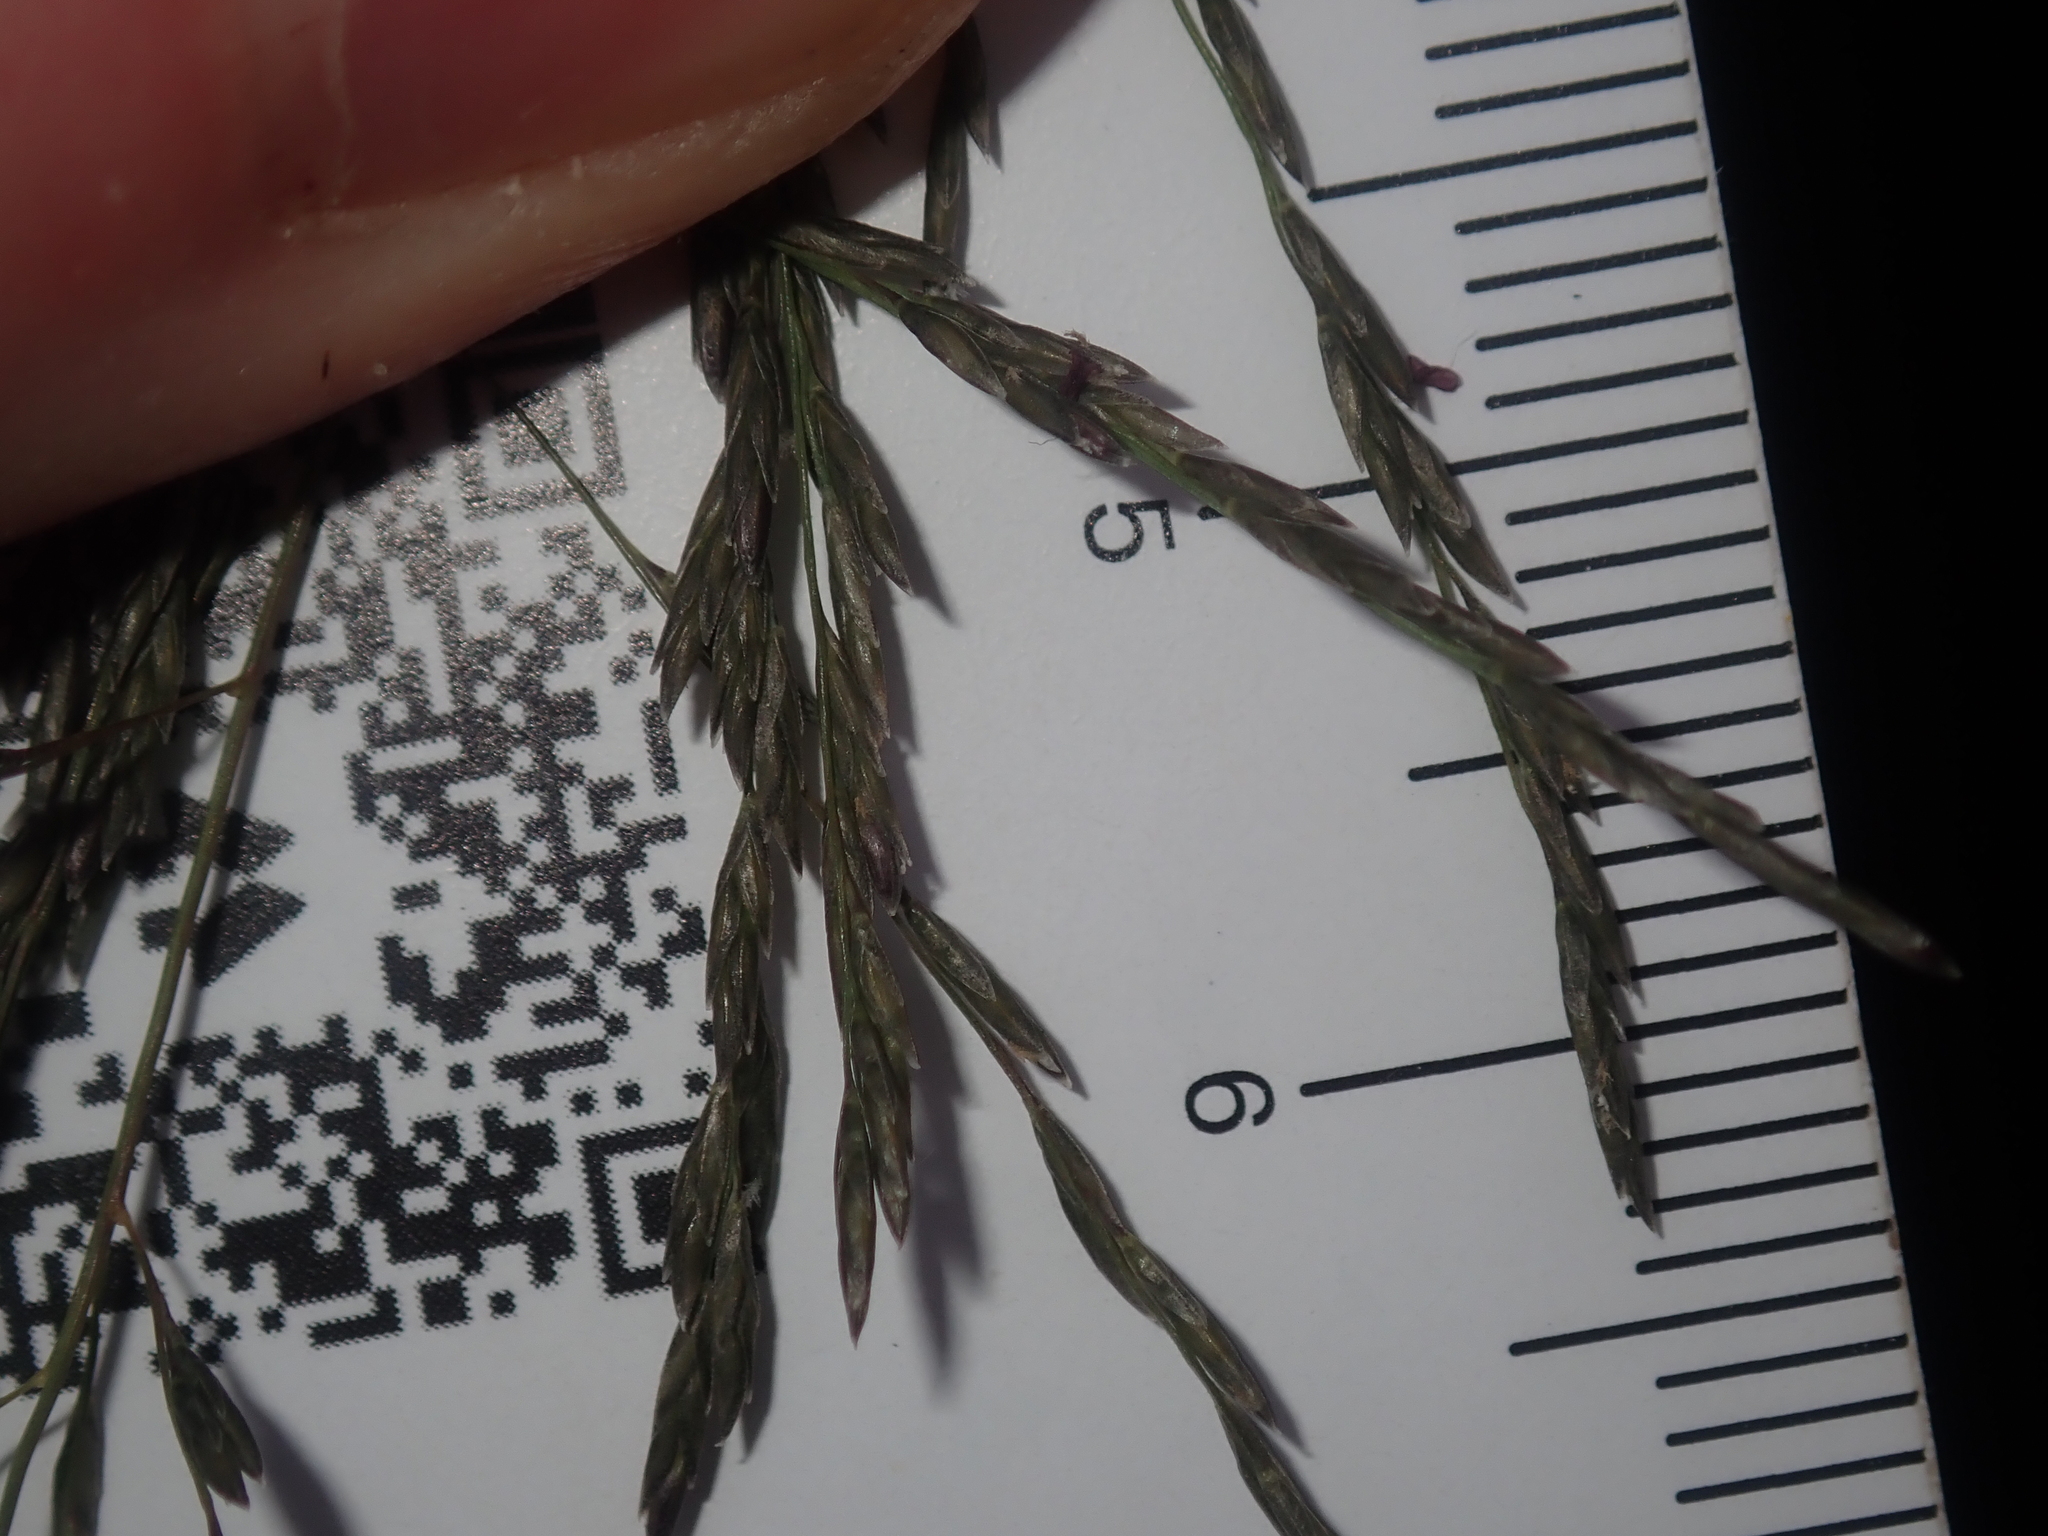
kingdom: Plantae
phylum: Tracheophyta
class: Liliopsida
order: Poales
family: Poaceae
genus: Eragrostis
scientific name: Eragrostis curvula
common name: African love-grass
